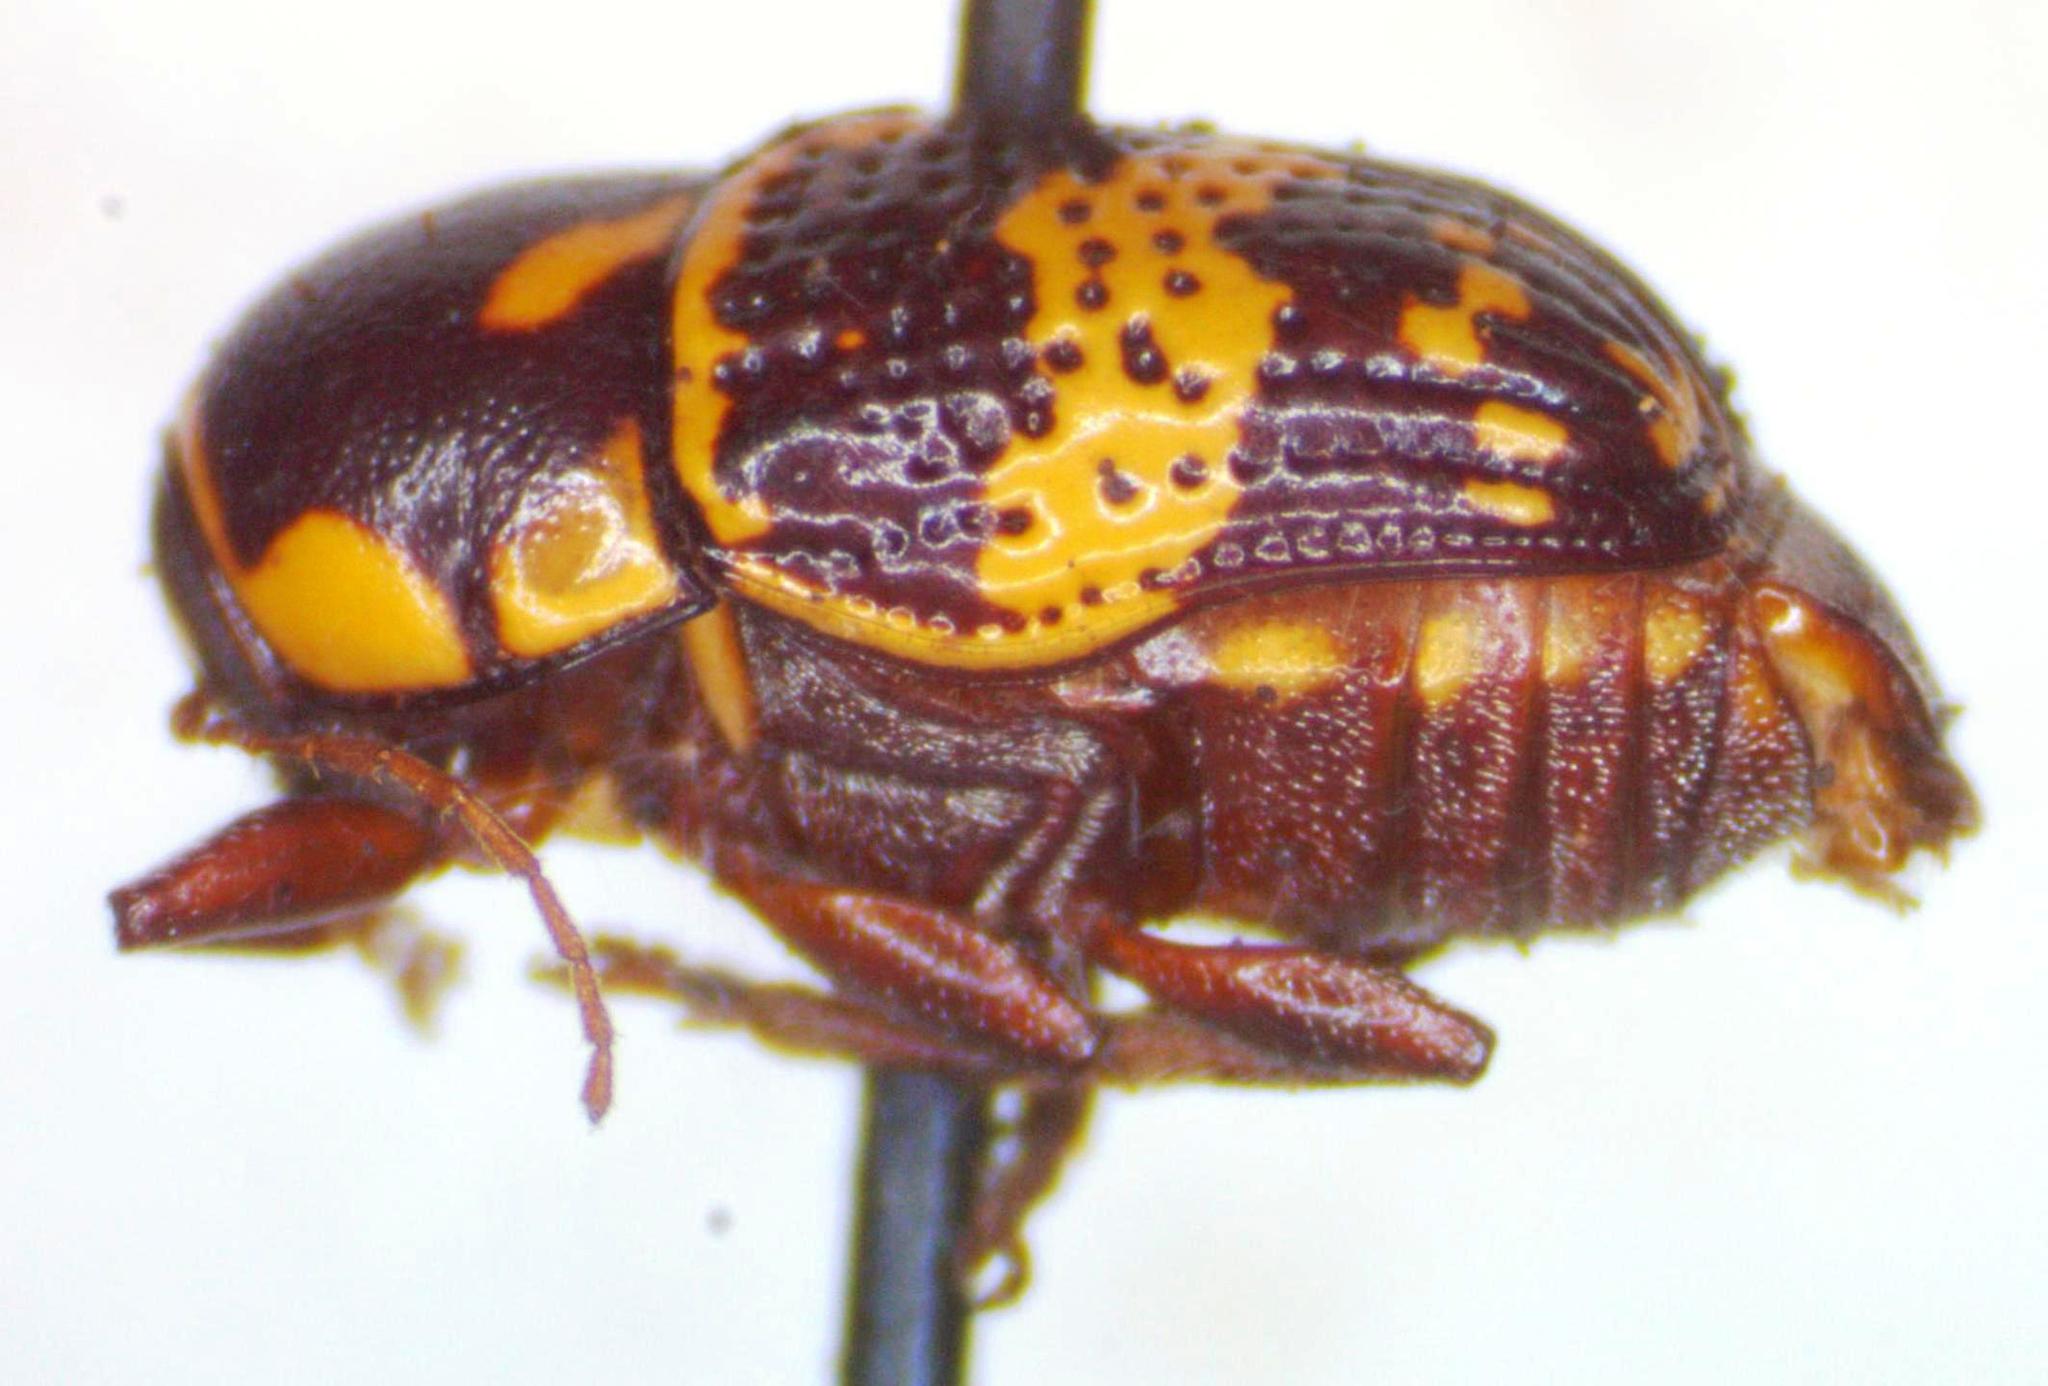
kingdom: Animalia
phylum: Arthropoda
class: Insecta
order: Coleoptera
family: Chrysomelidae
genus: Cryptocephalus
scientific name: Cryptocephalus irroratus
